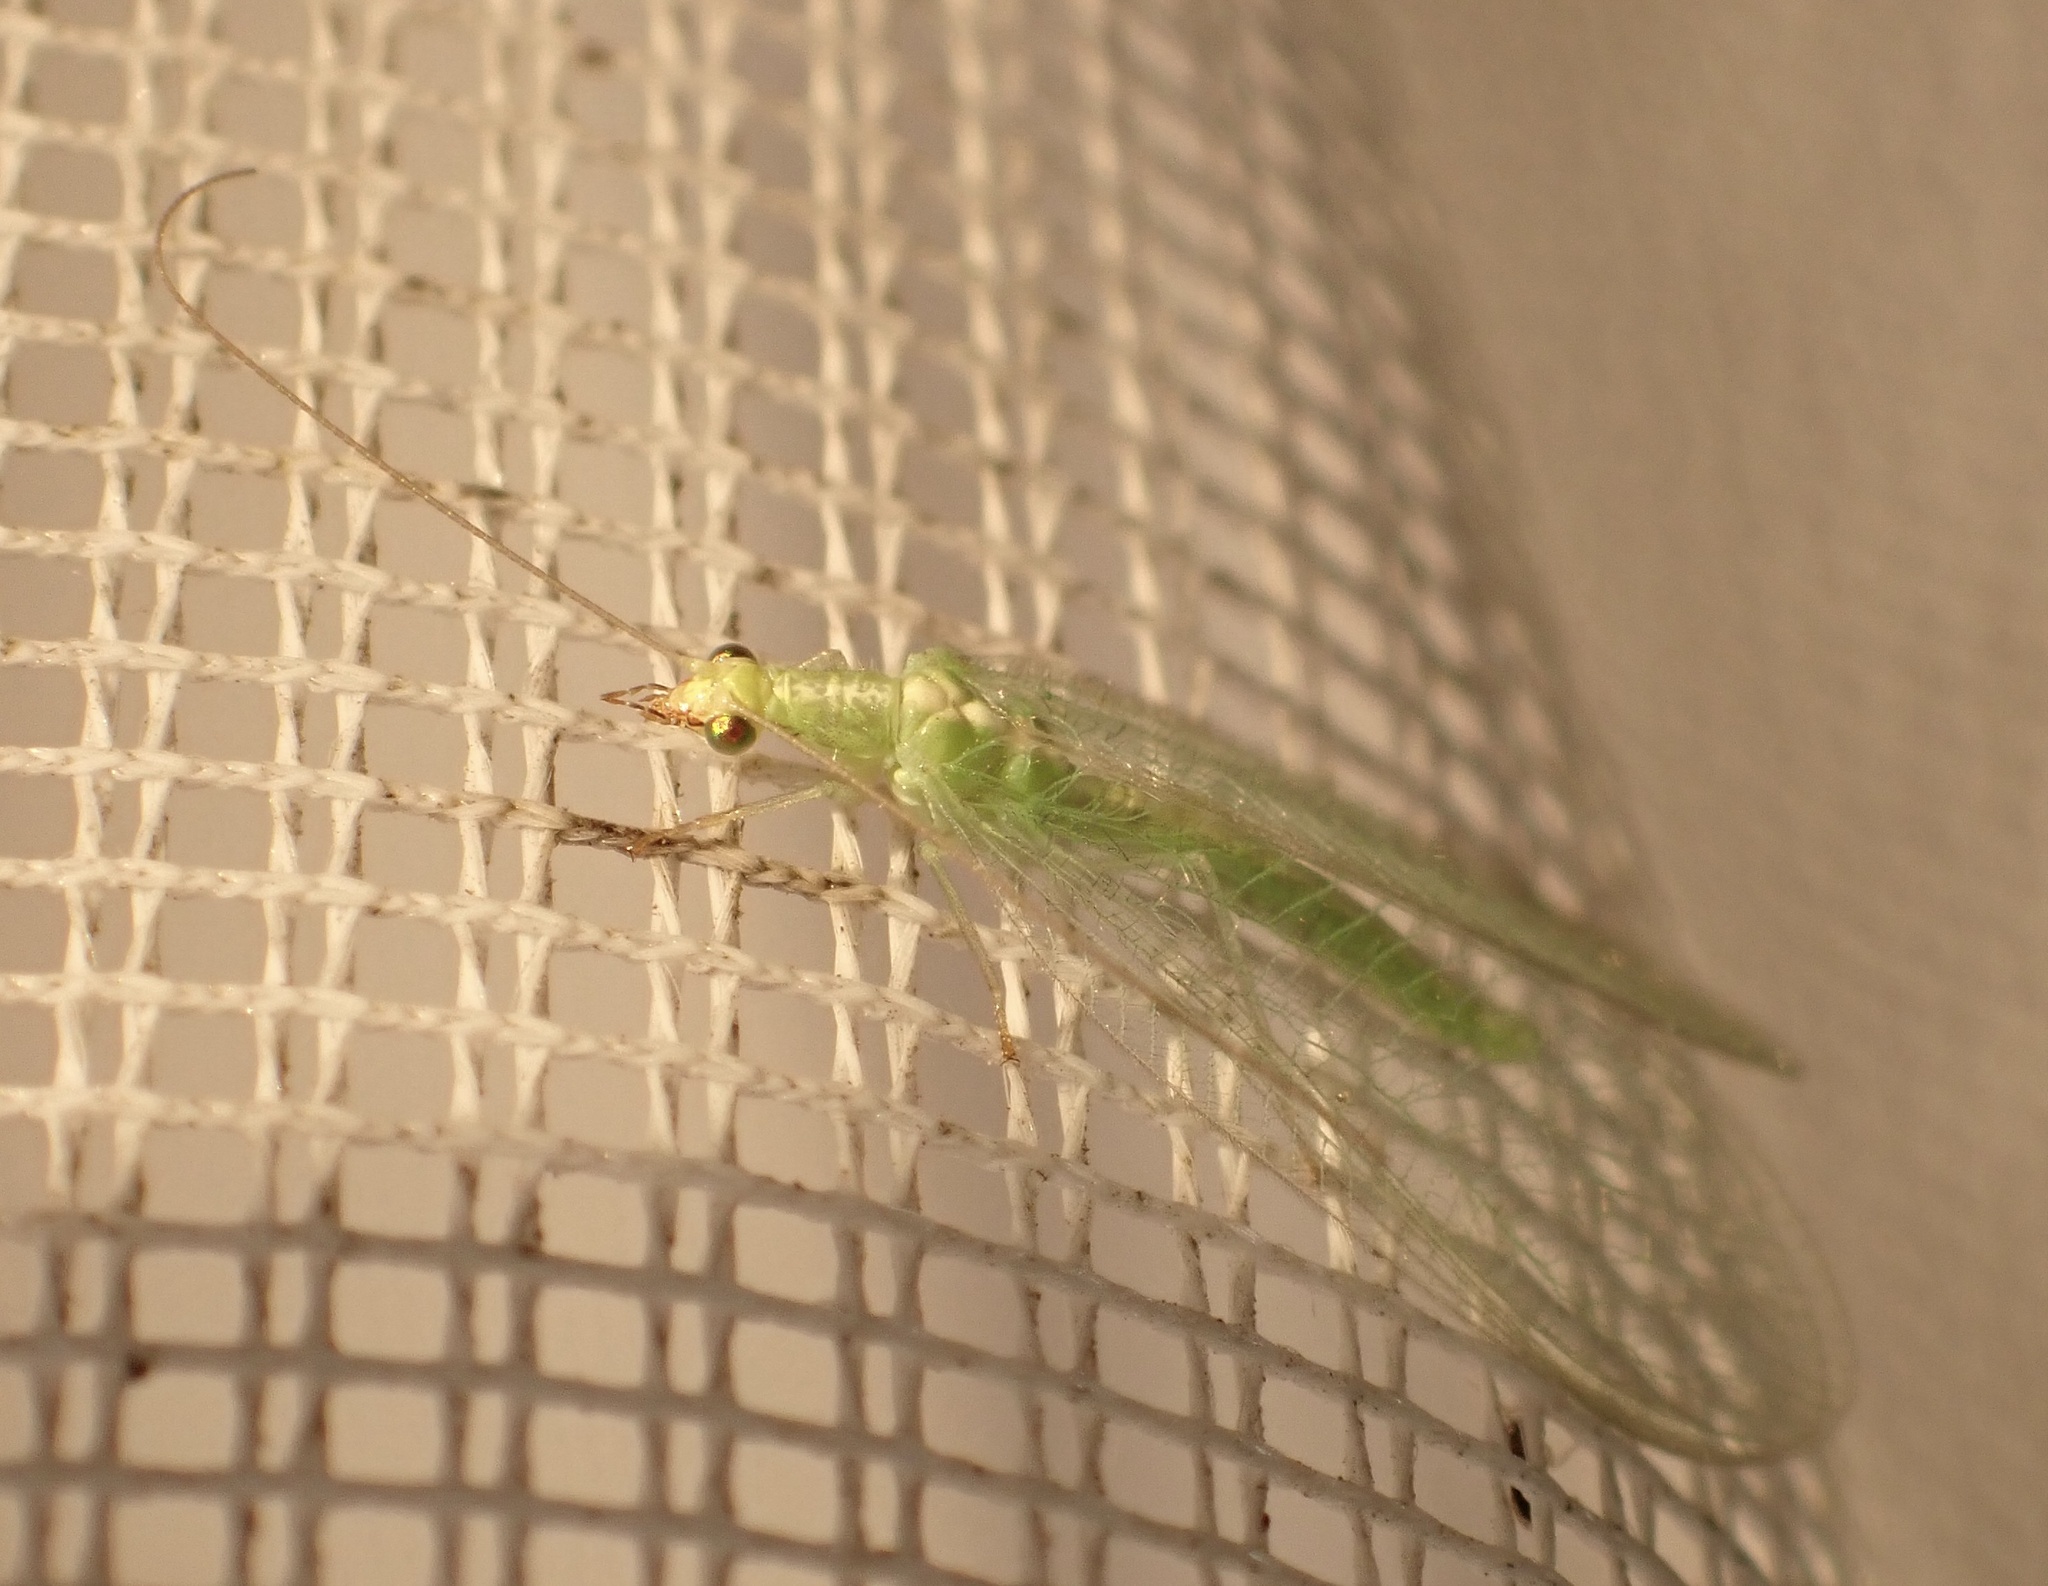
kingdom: Animalia
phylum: Arthropoda
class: Insecta
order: Neuroptera
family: Chrysopidae
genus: Chrysoperla
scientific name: Chrysoperla
